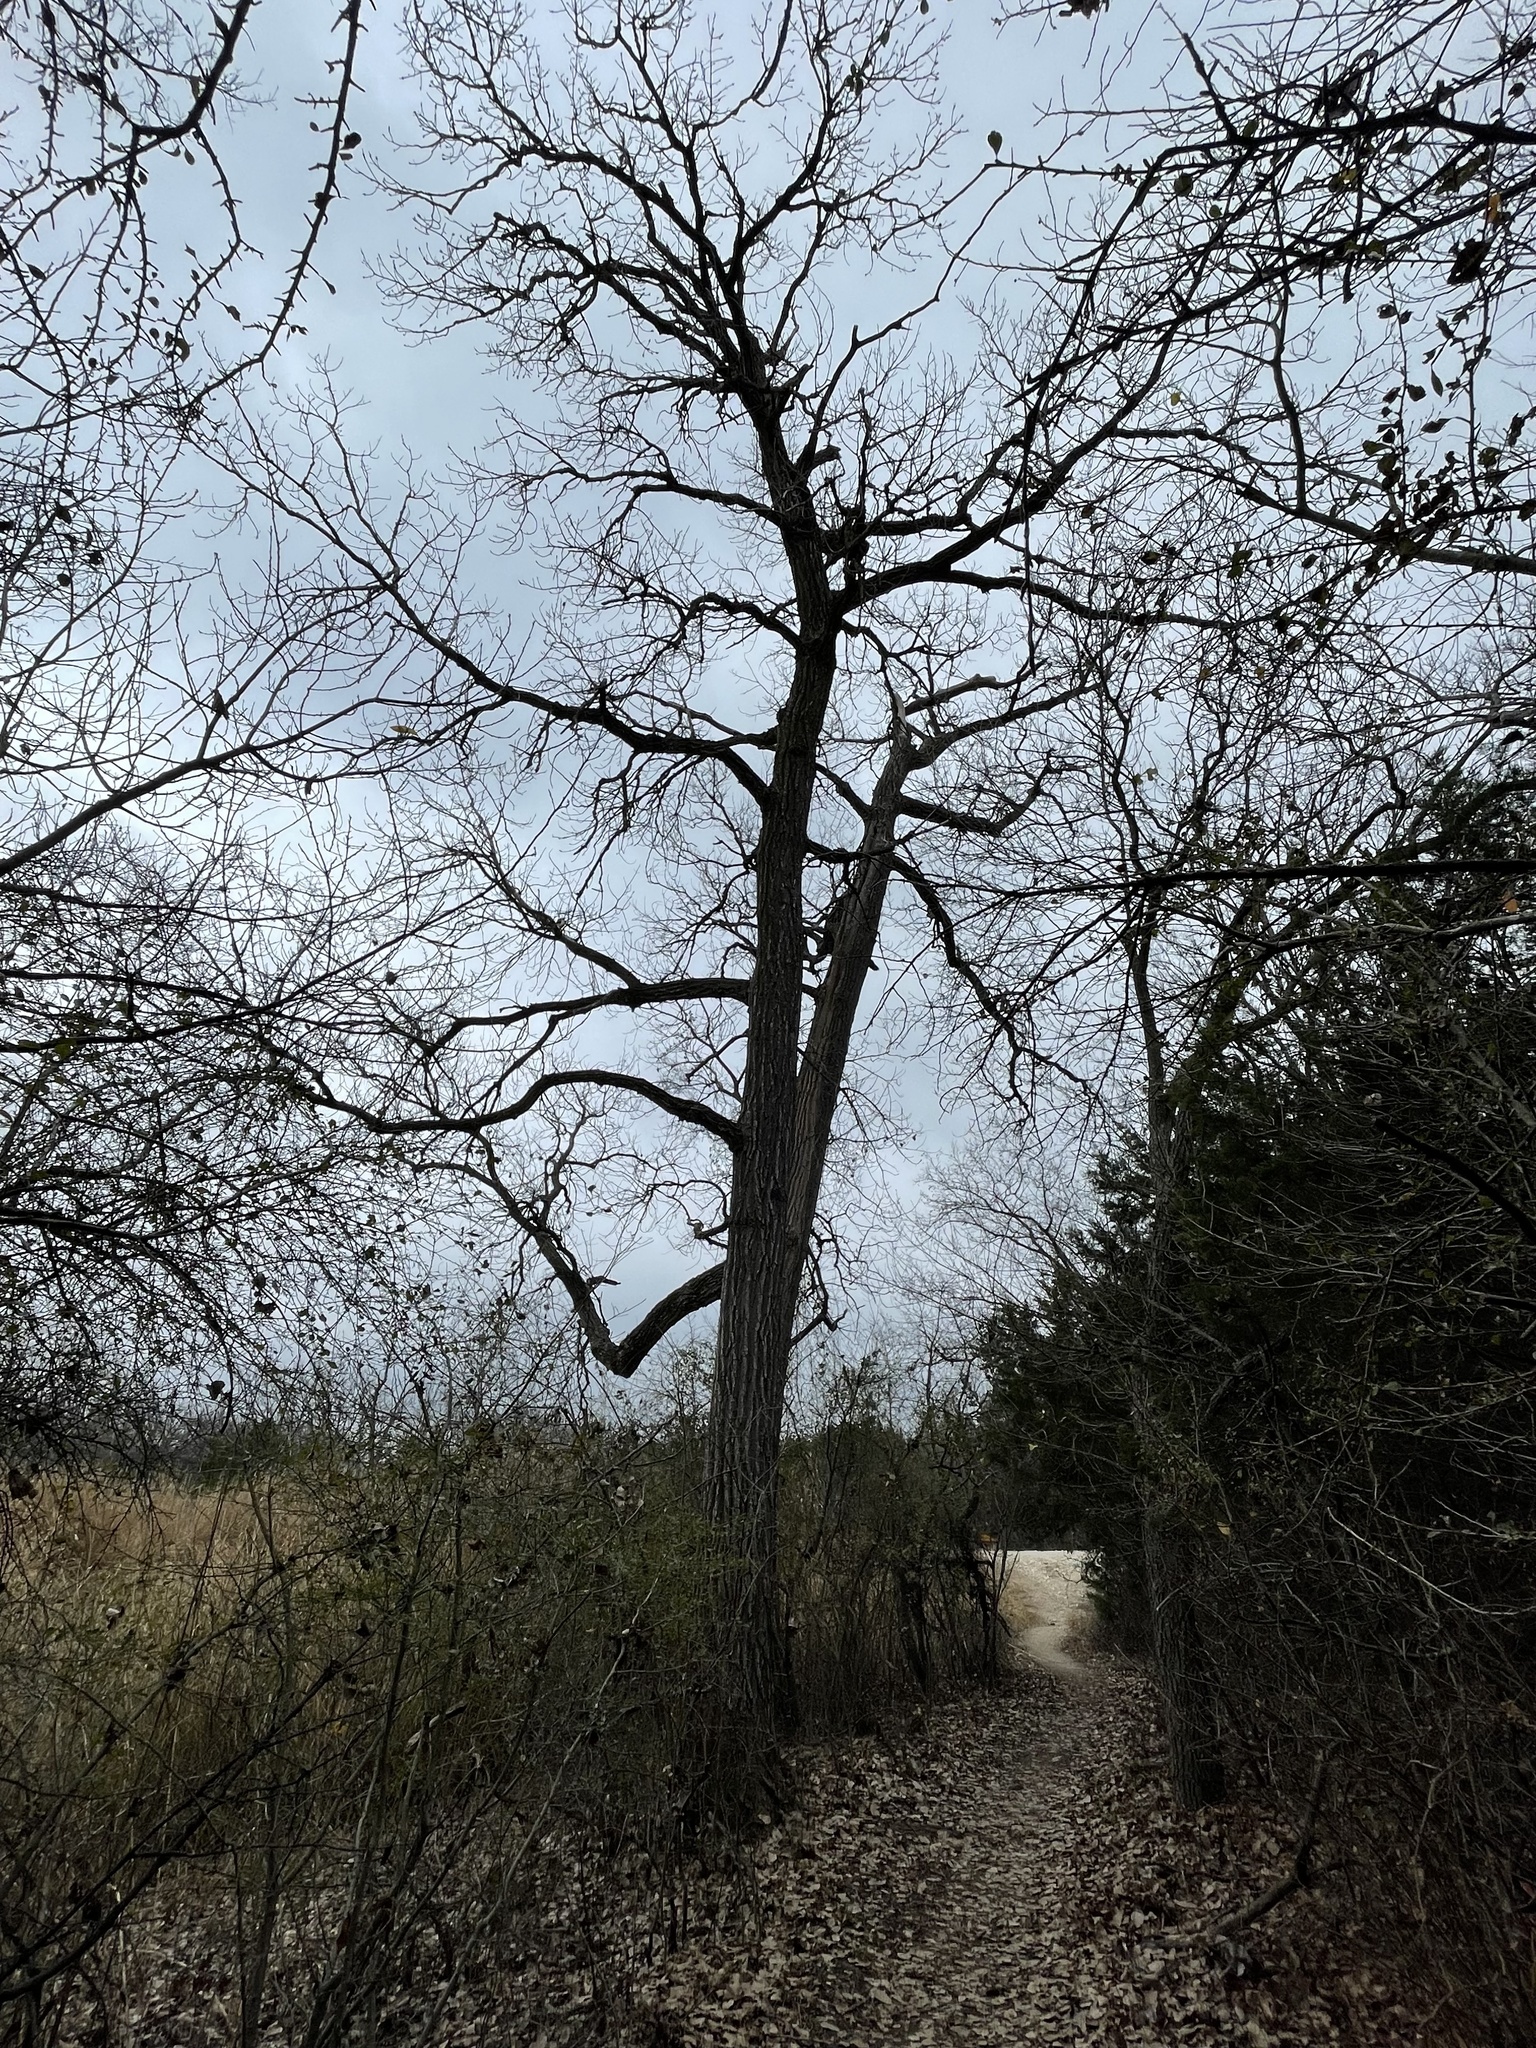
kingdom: Plantae
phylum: Tracheophyta
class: Magnoliopsida
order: Malpighiales
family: Salicaceae
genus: Populus
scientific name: Populus deltoides
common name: Eastern cottonwood
